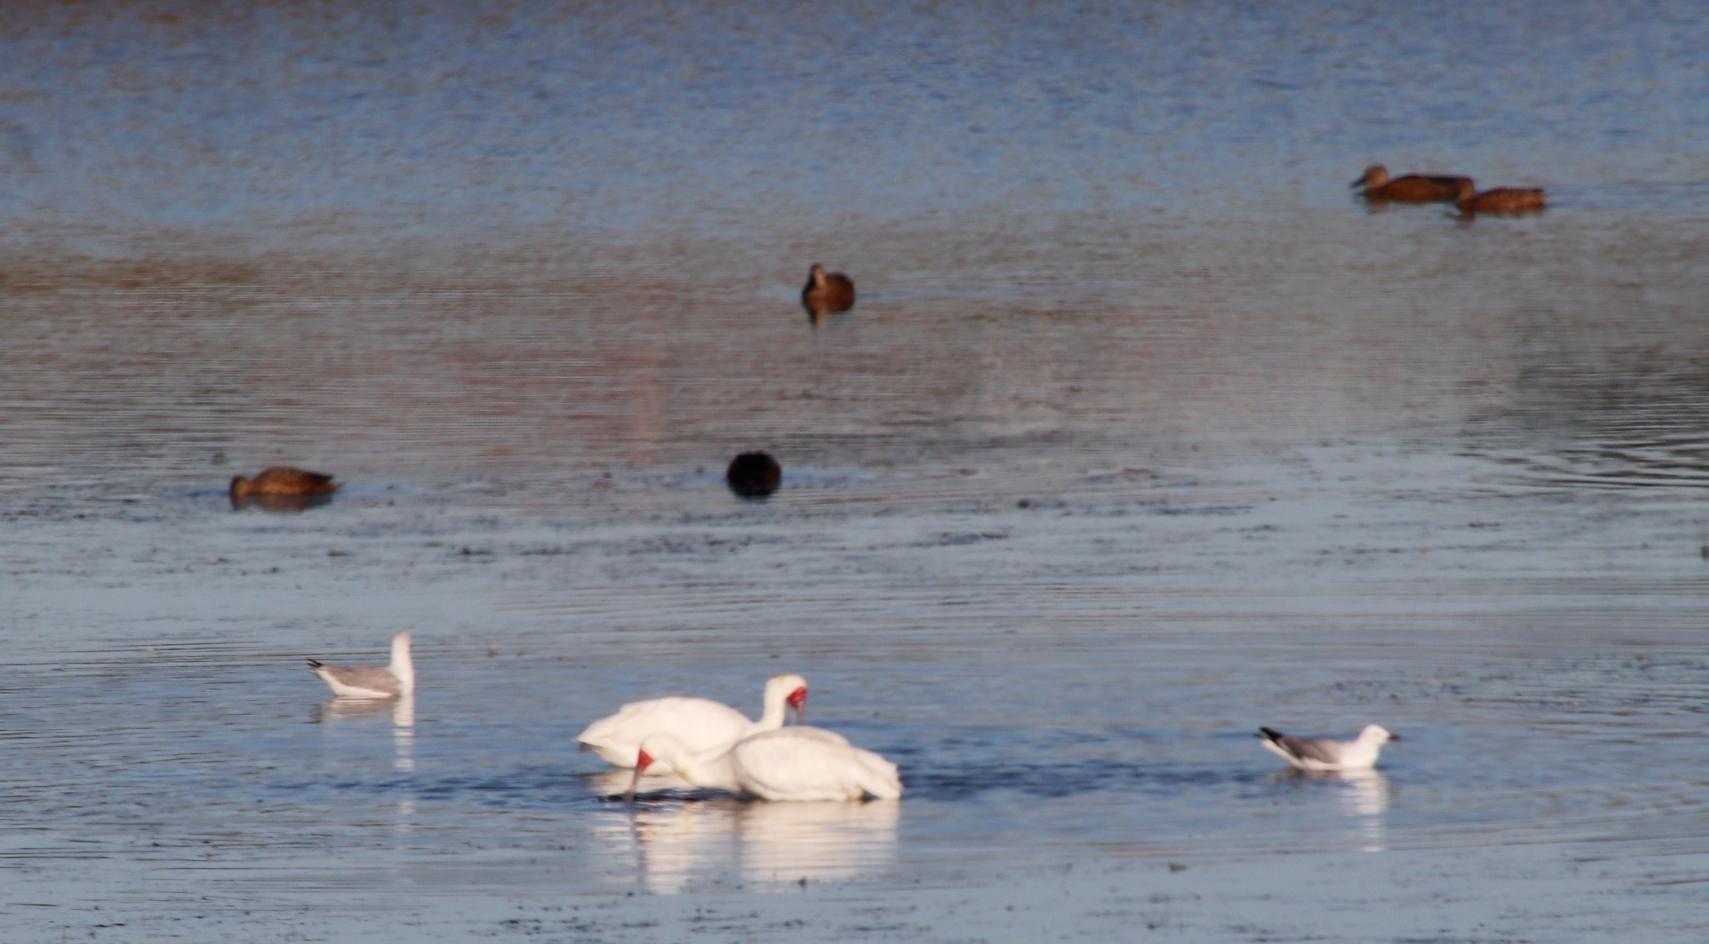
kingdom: Animalia
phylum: Chordata
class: Aves
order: Pelecaniformes
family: Threskiornithidae
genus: Platalea
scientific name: Platalea alba
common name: African spoonbill
